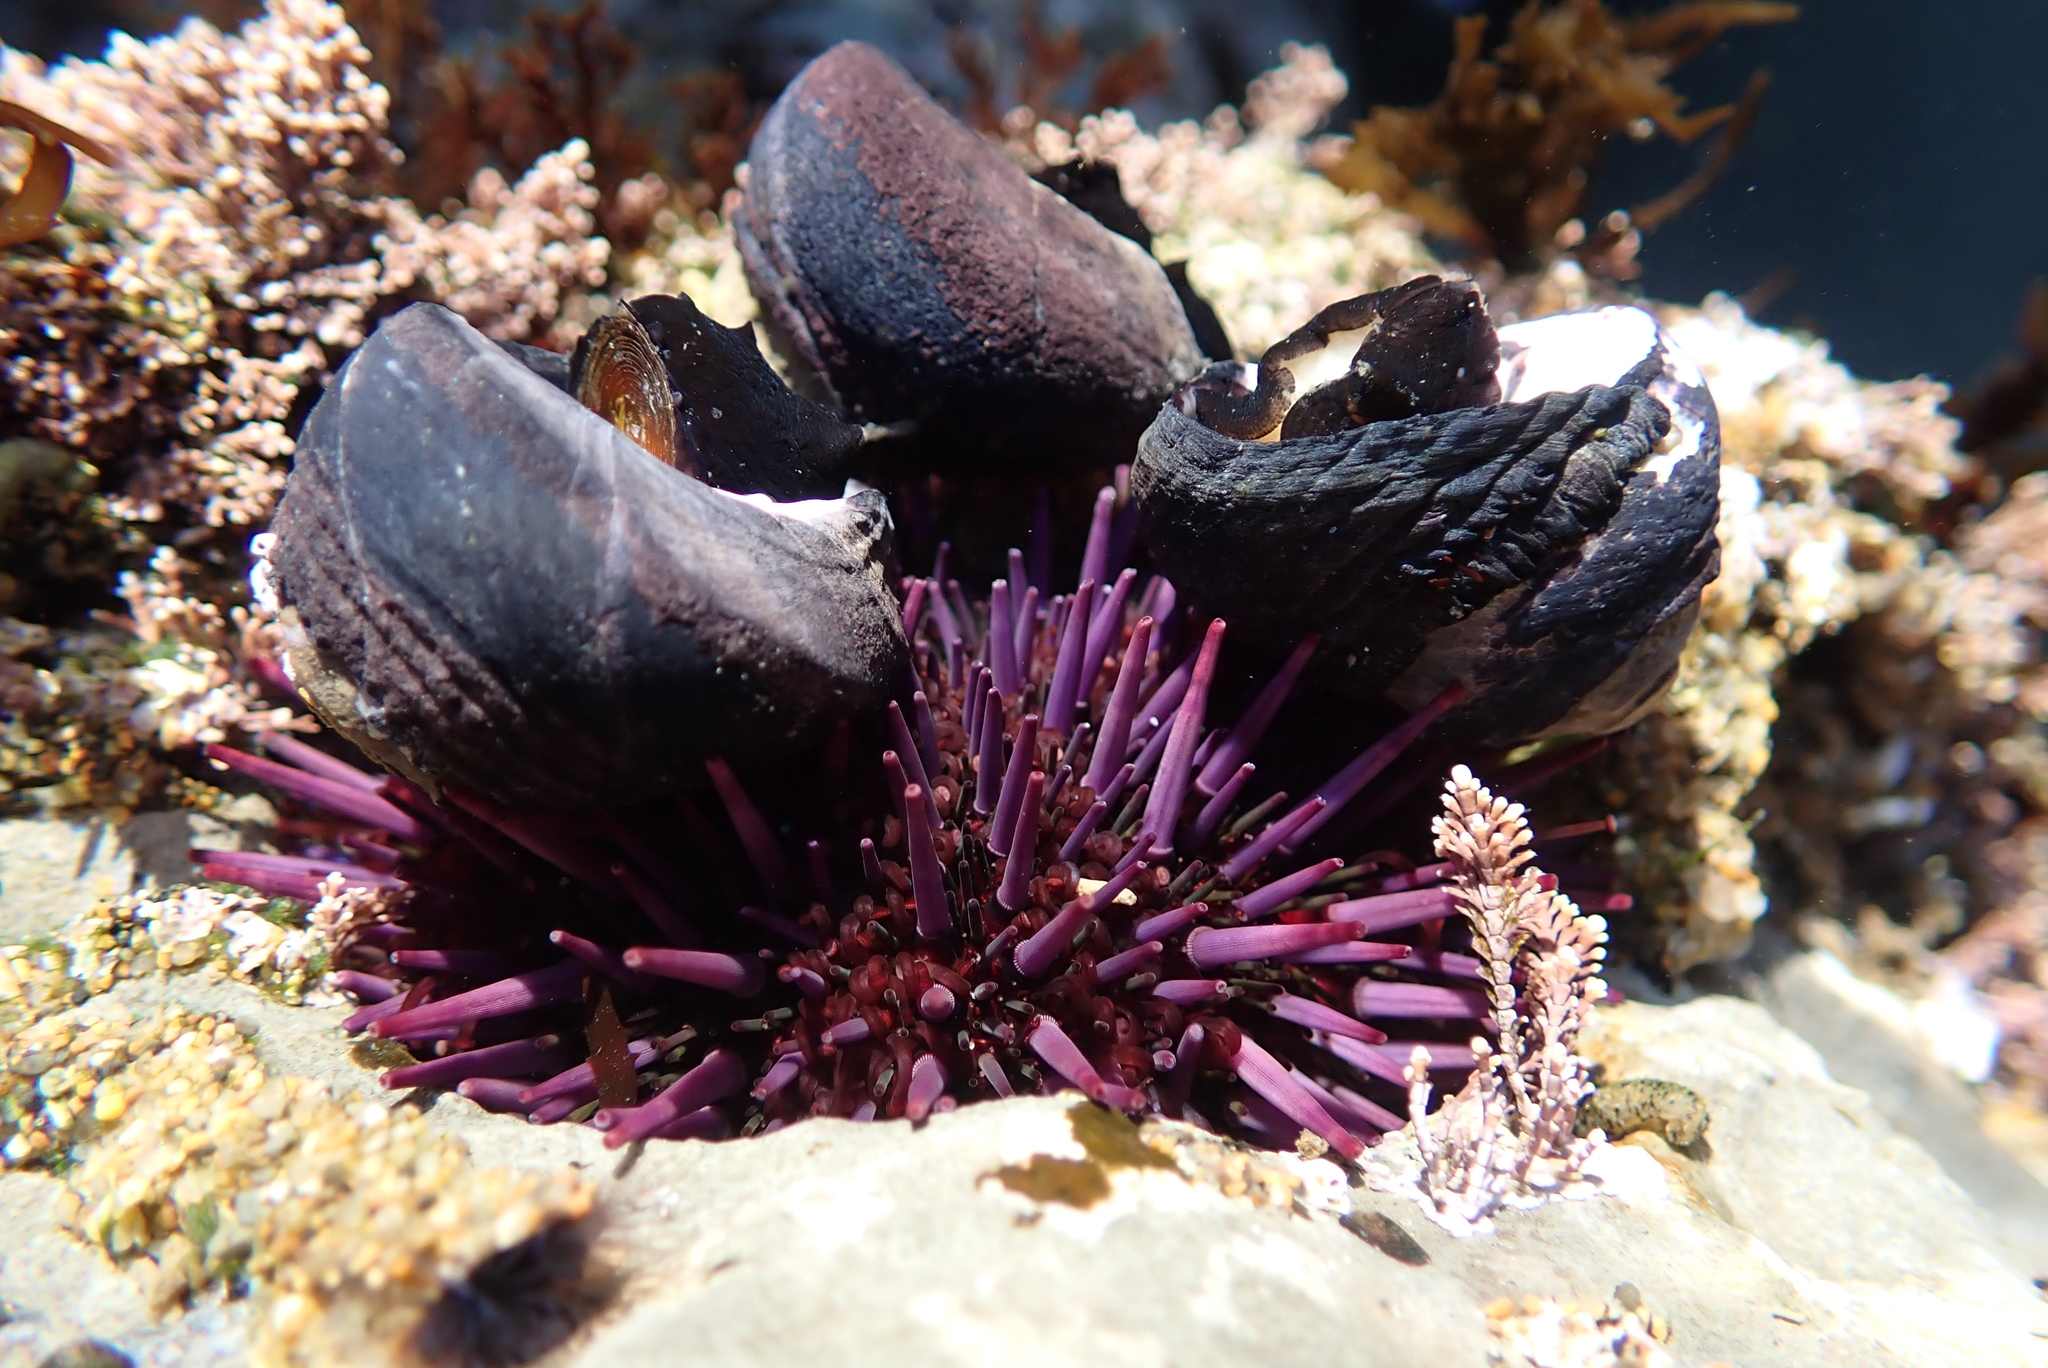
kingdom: Animalia
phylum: Echinodermata
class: Echinoidea
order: Camarodonta
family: Strongylocentrotidae
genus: Strongylocentrotus
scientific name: Strongylocentrotus purpuratus
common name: Purple sea urchin
